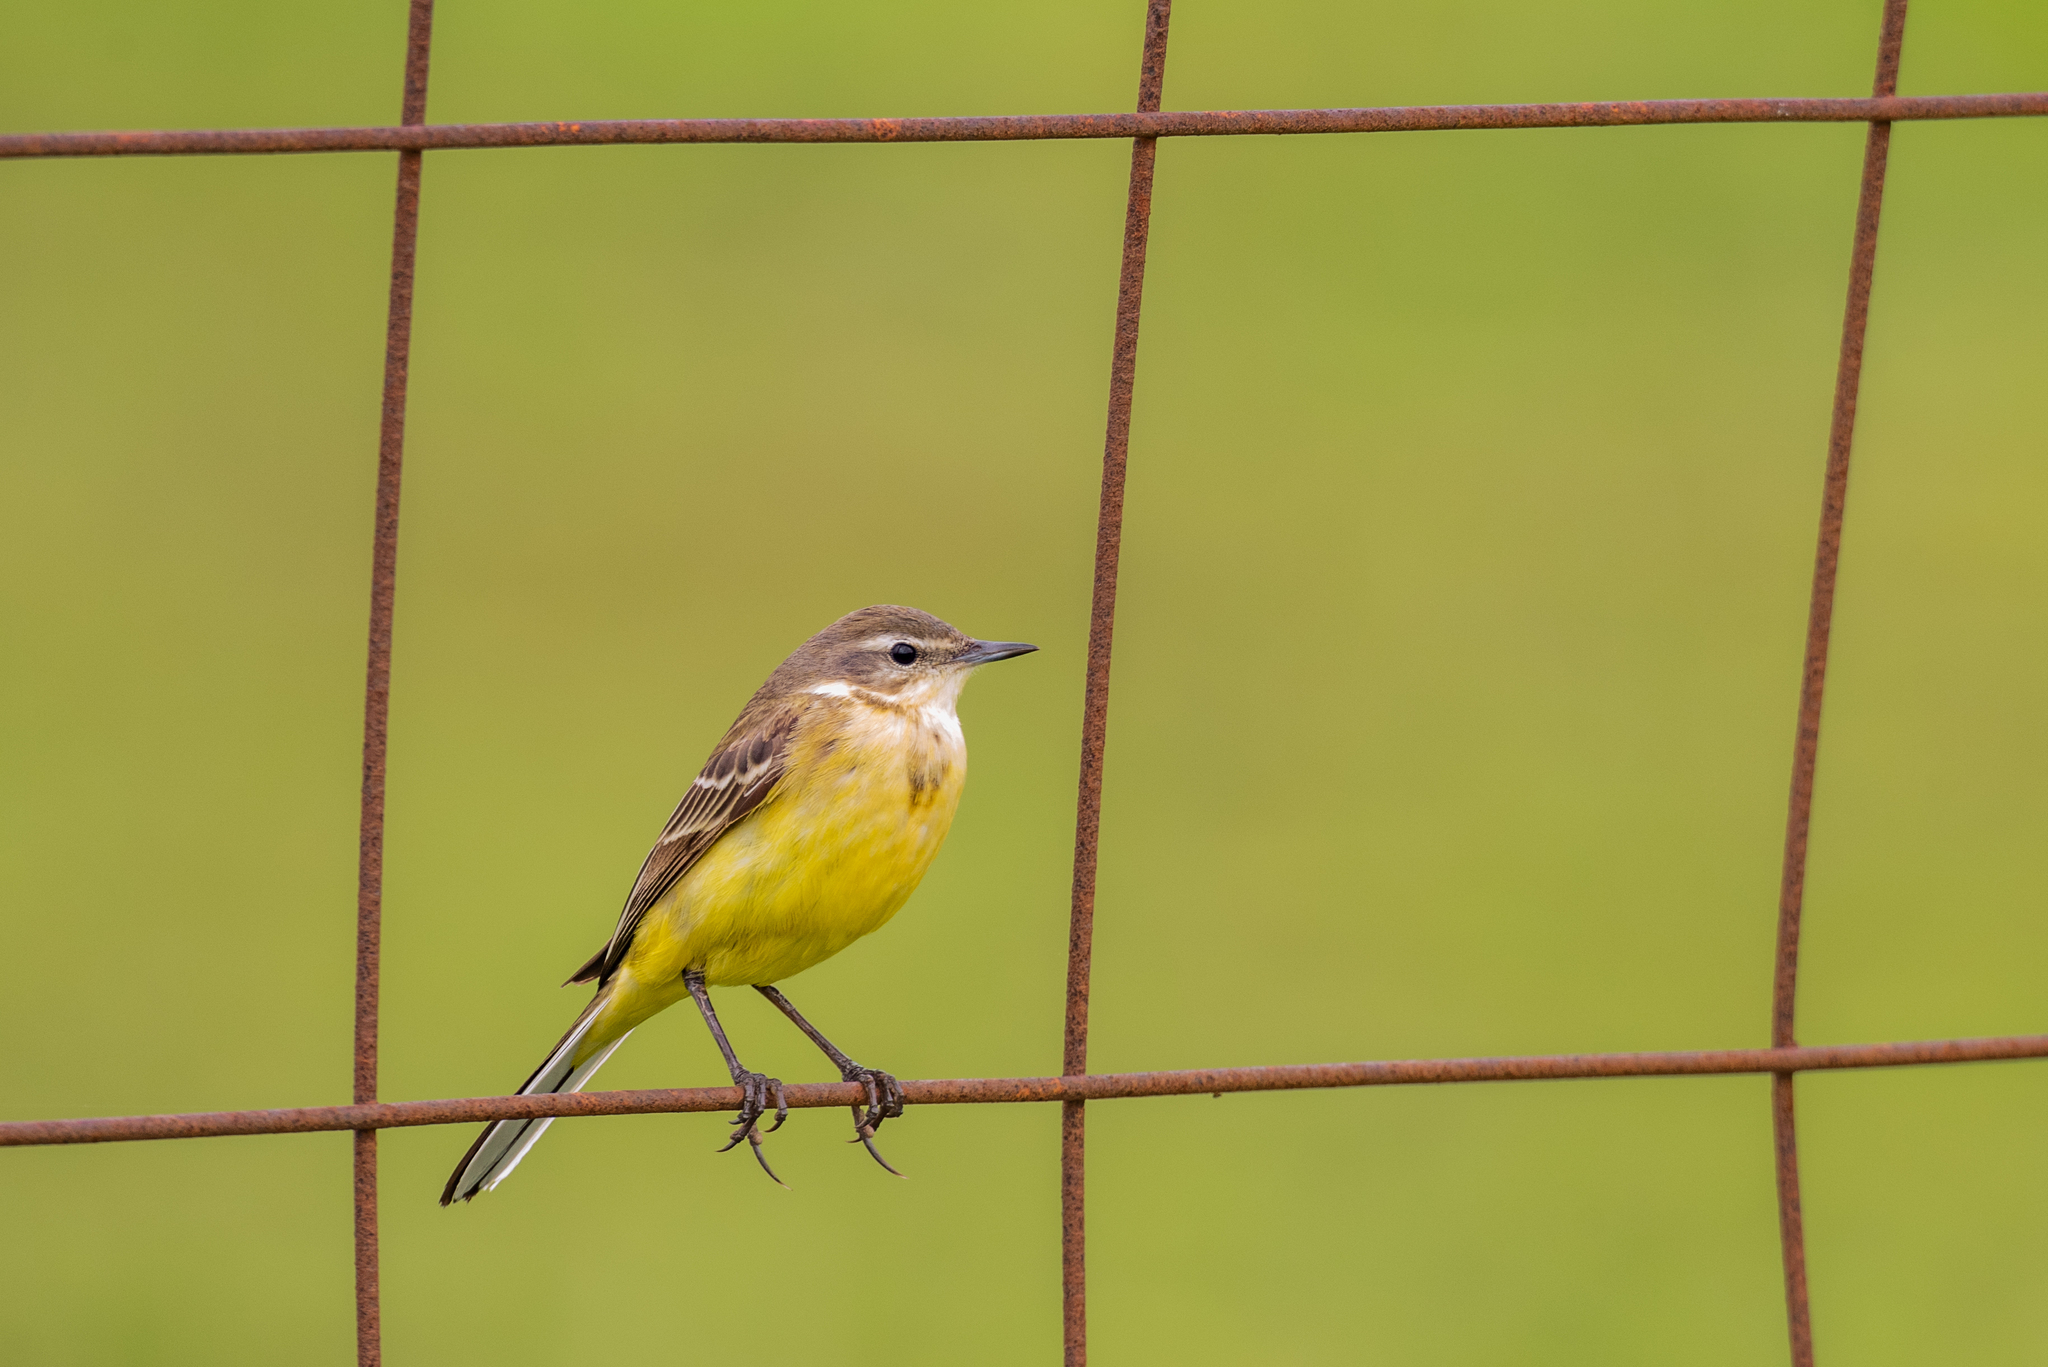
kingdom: Animalia
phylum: Chordata
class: Aves
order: Passeriformes
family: Motacillidae
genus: Motacilla
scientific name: Motacilla flava
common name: Western yellow wagtail
